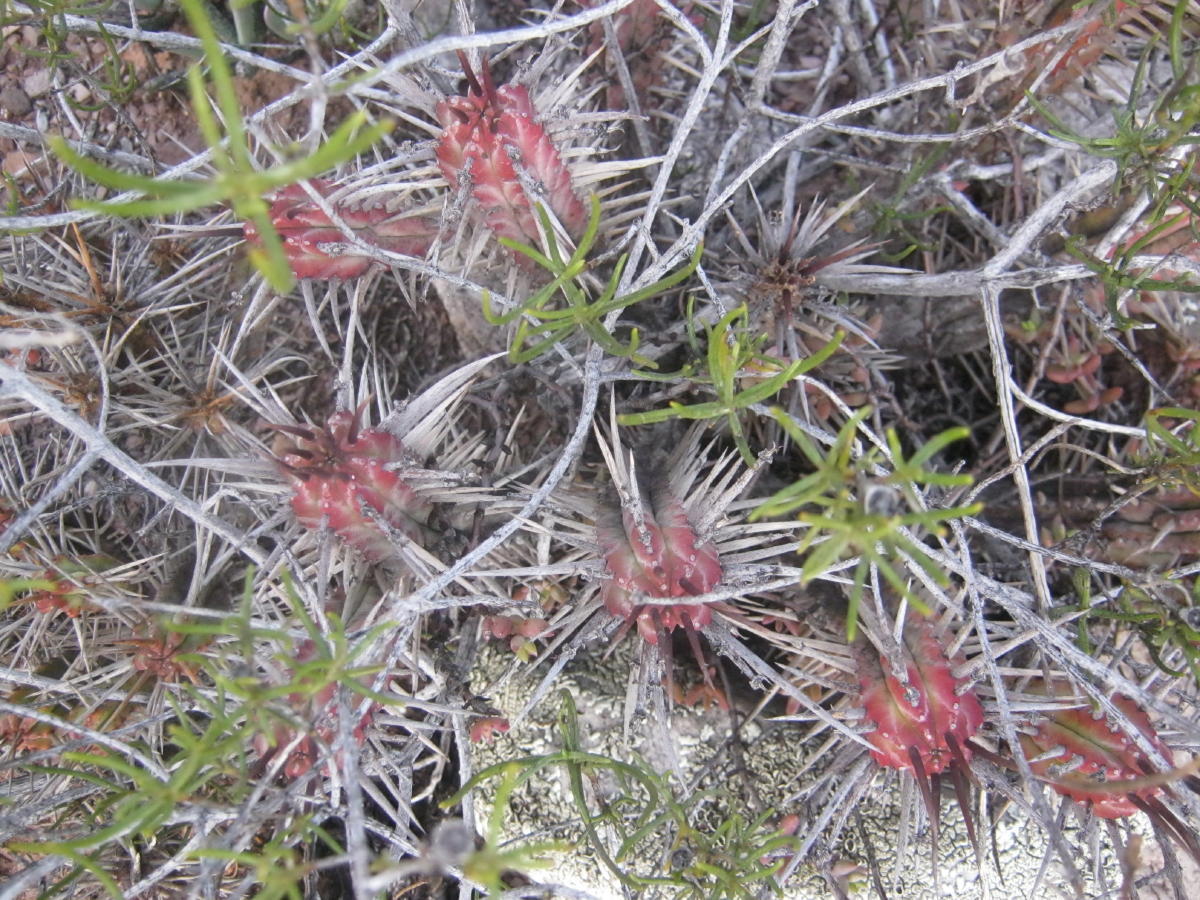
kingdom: Plantae
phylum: Tracheophyta
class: Magnoliopsida
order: Malpighiales
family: Euphorbiaceae
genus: Euphorbia
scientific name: Euphorbia heptagona
